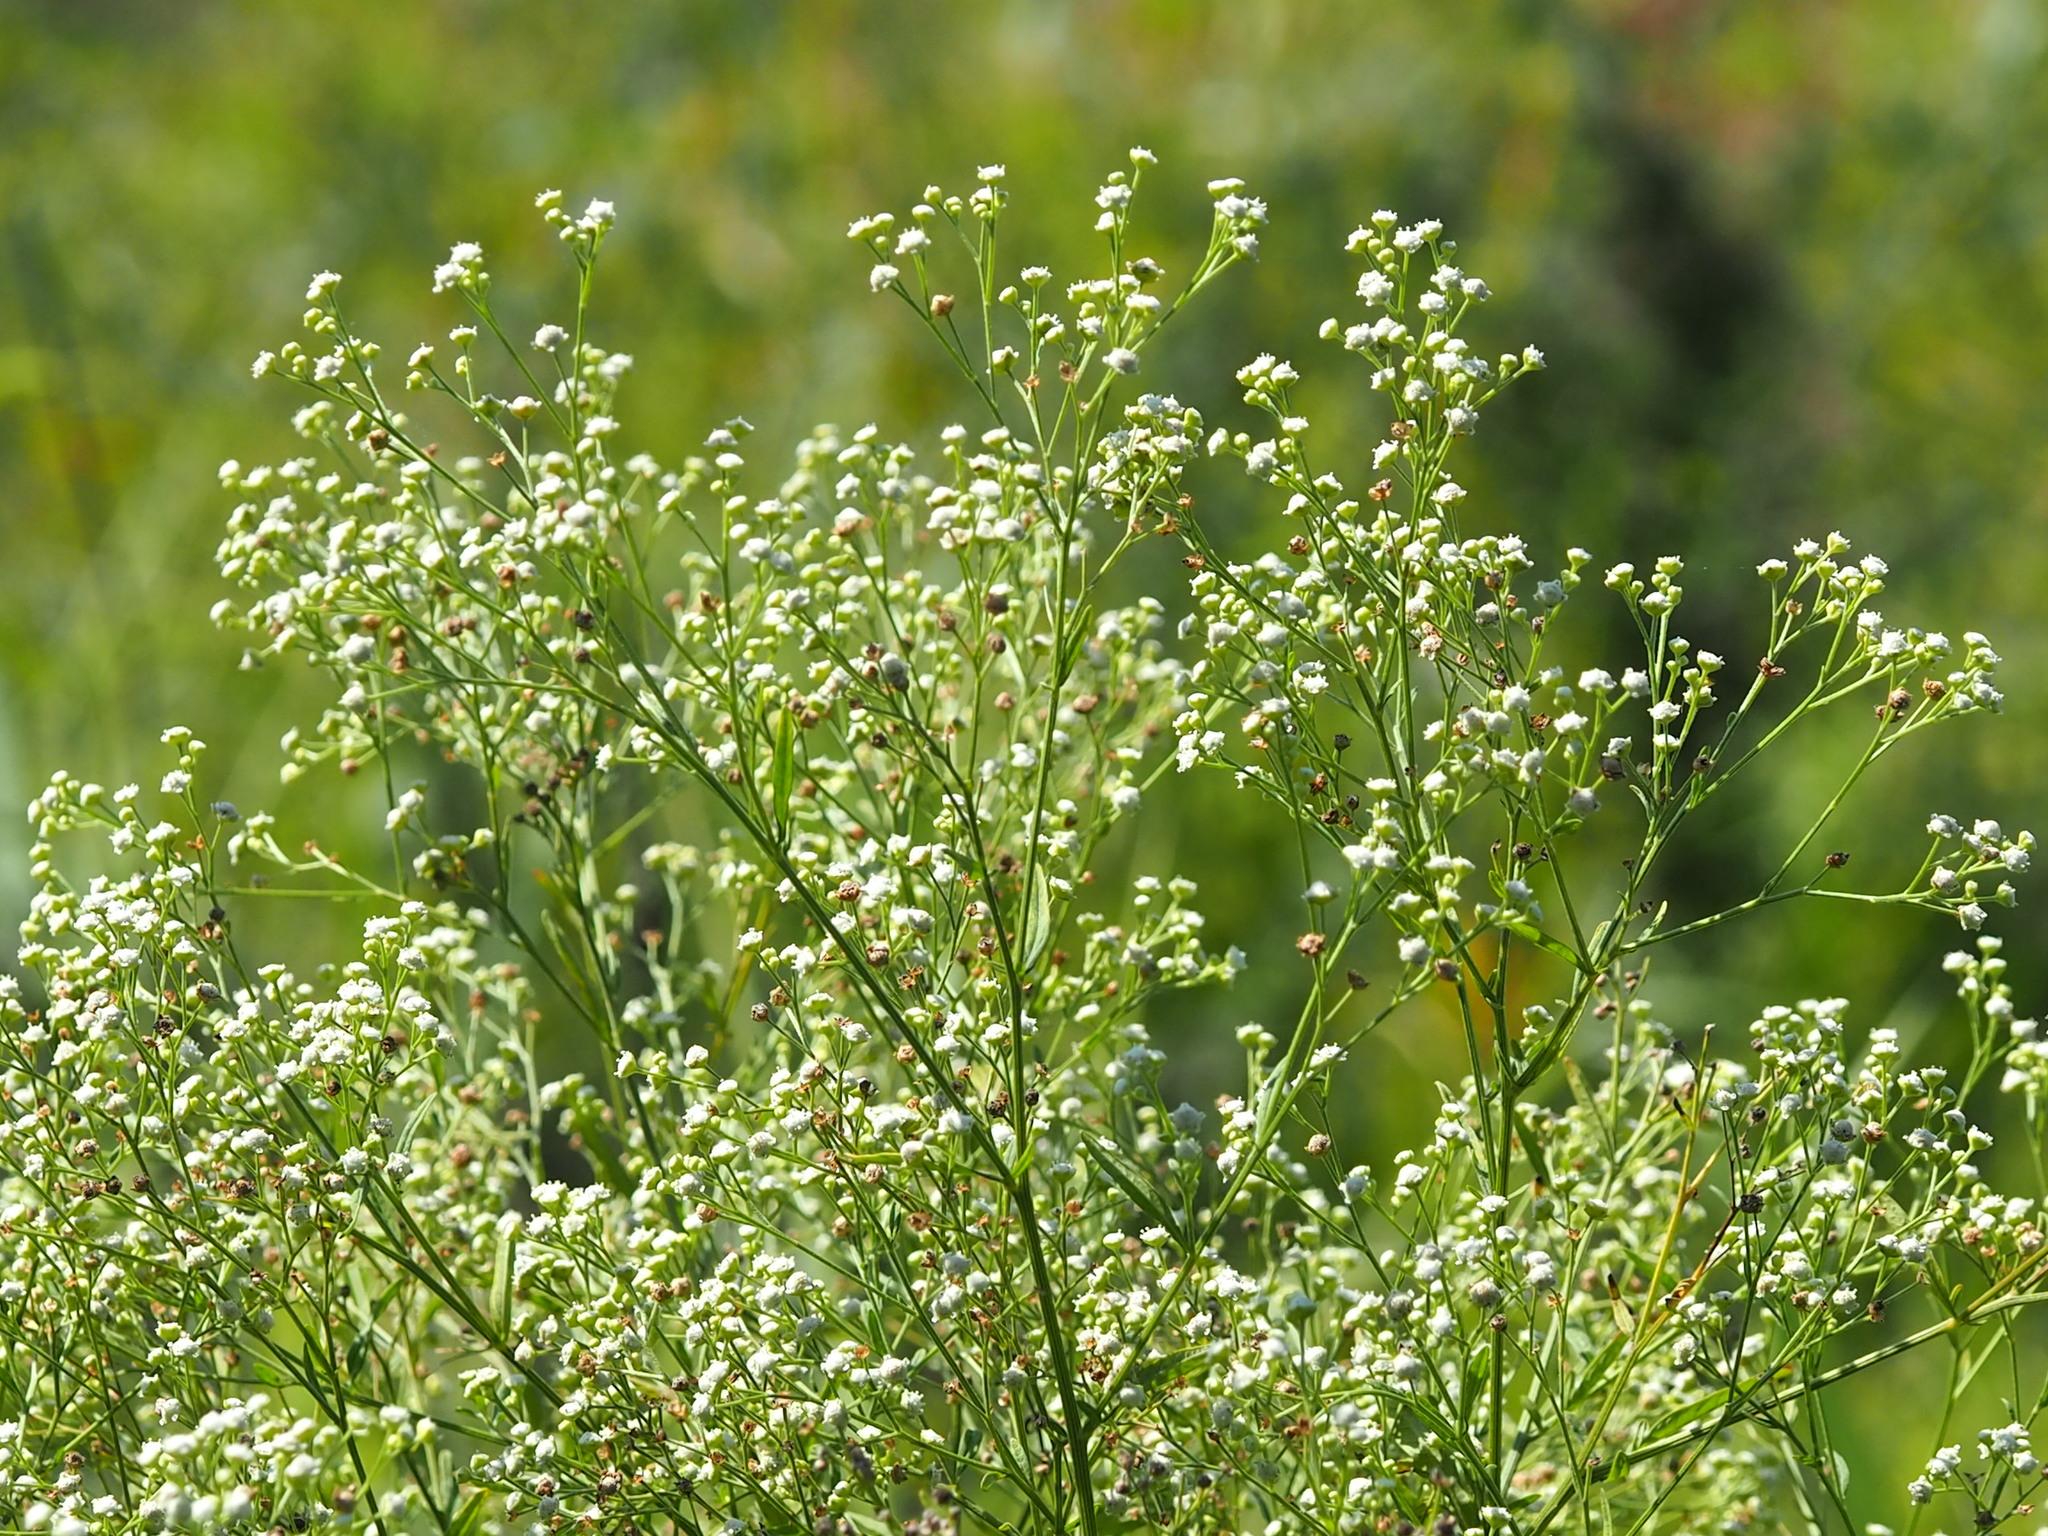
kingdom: Plantae
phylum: Tracheophyta
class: Magnoliopsida
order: Asterales
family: Asteraceae
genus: Parthenium
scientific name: Parthenium hysterophorus
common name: Santa maria feverfew
